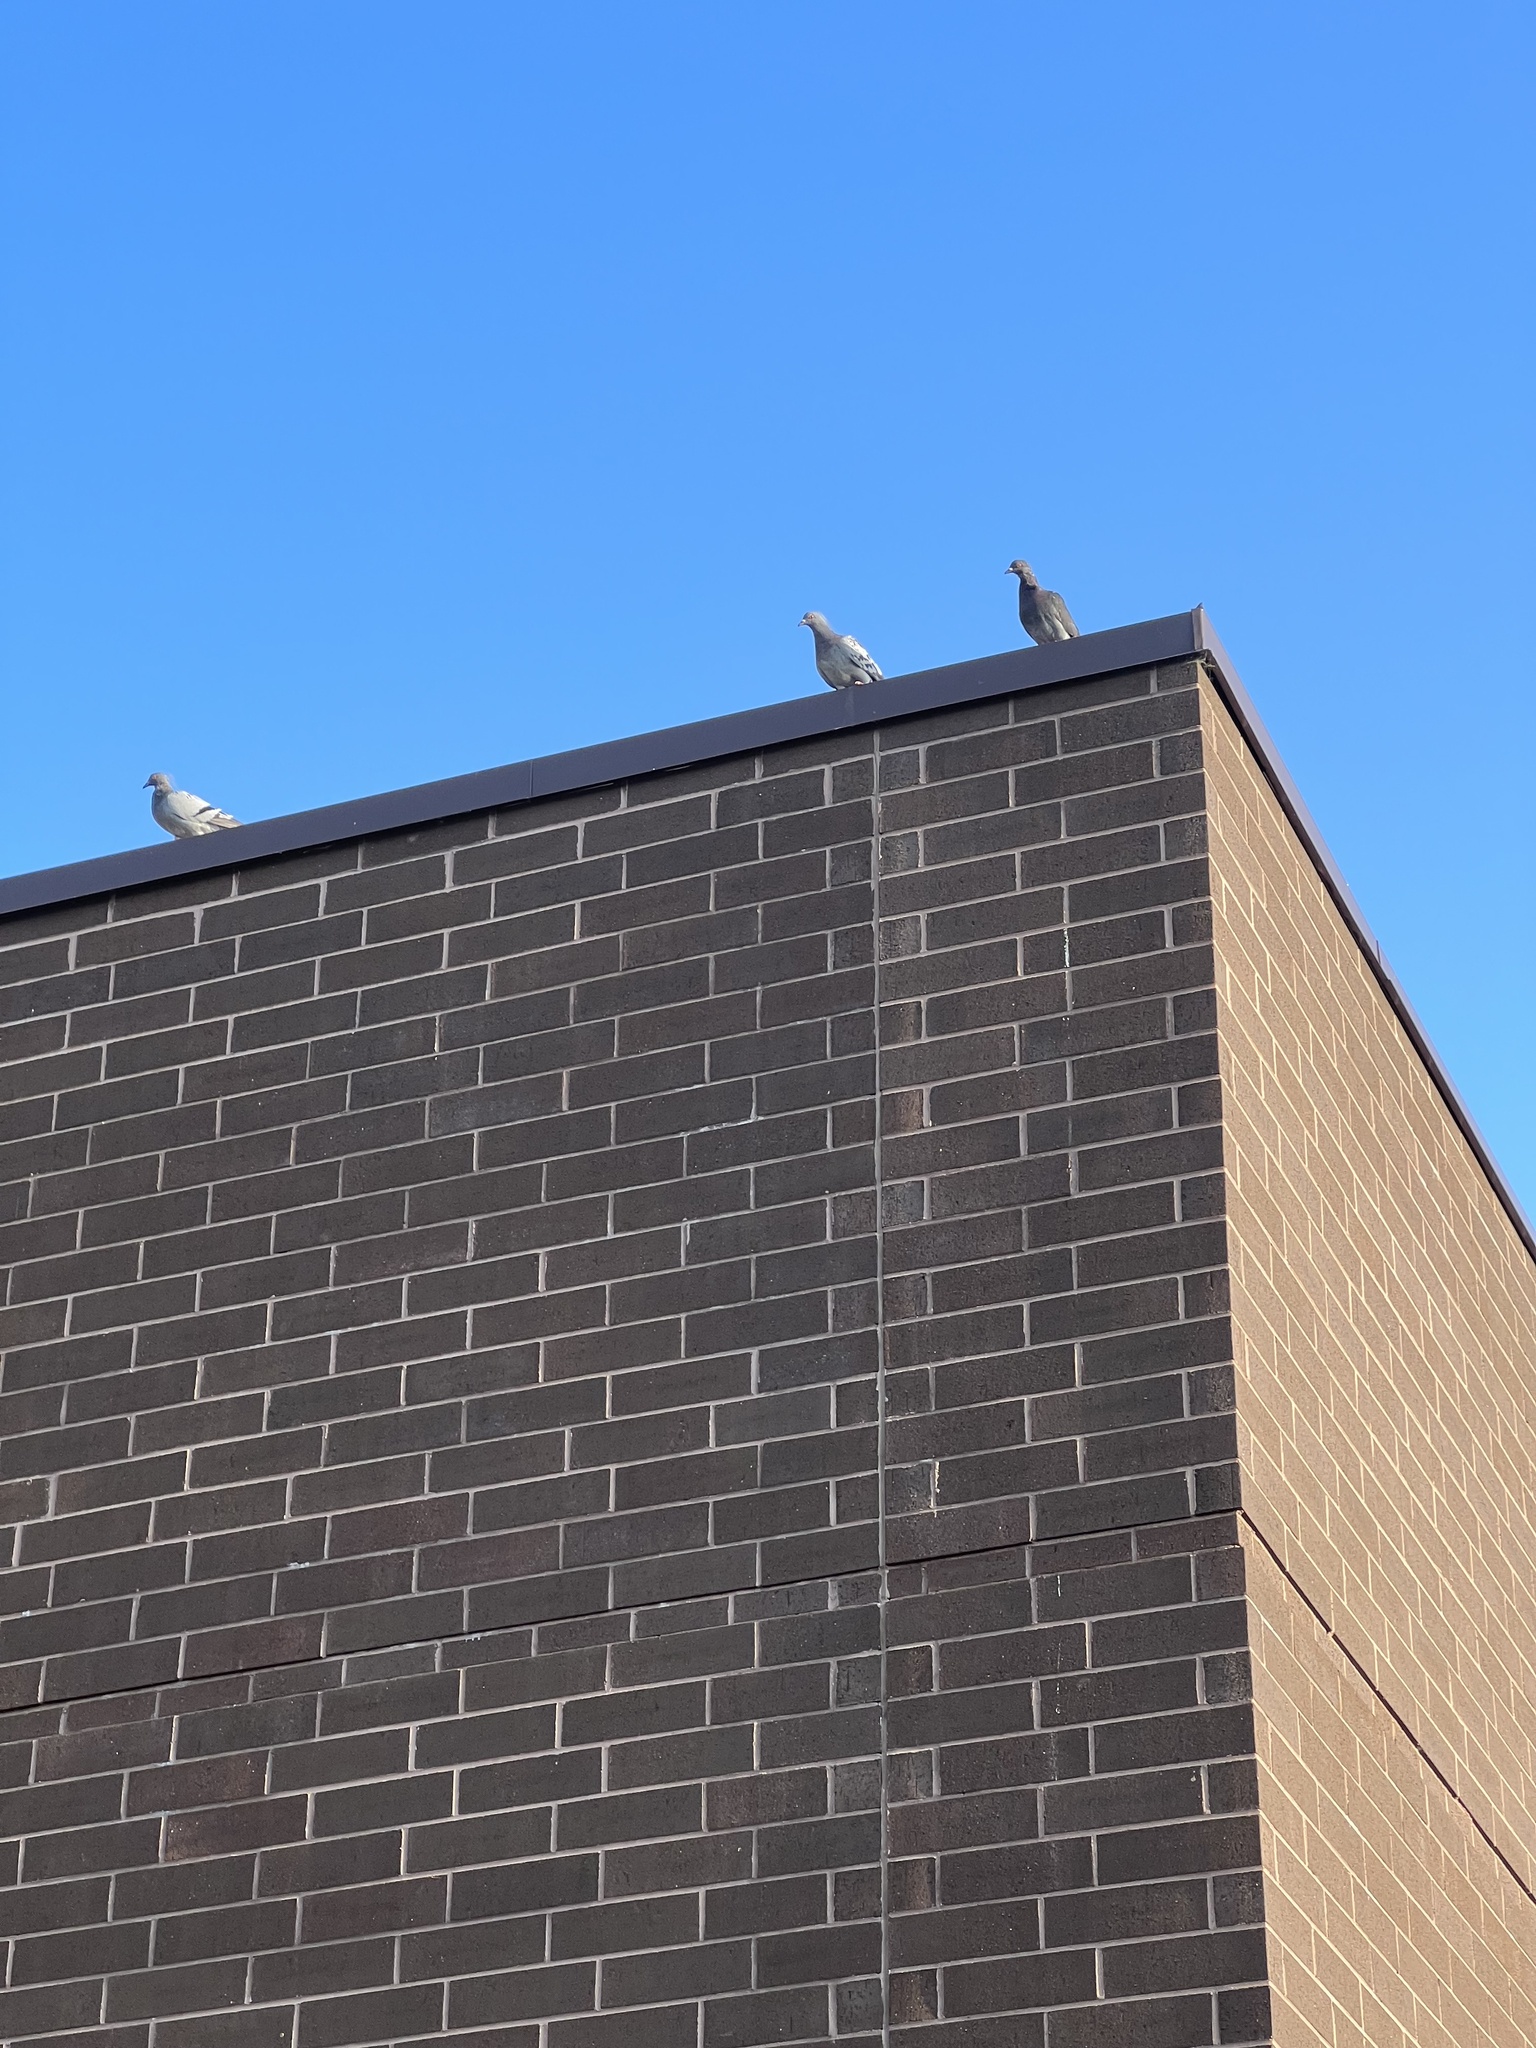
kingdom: Animalia
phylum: Chordata
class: Aves
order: Columbiformes
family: Columbidae
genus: Columba
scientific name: Columba livia
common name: Rock pigeon
